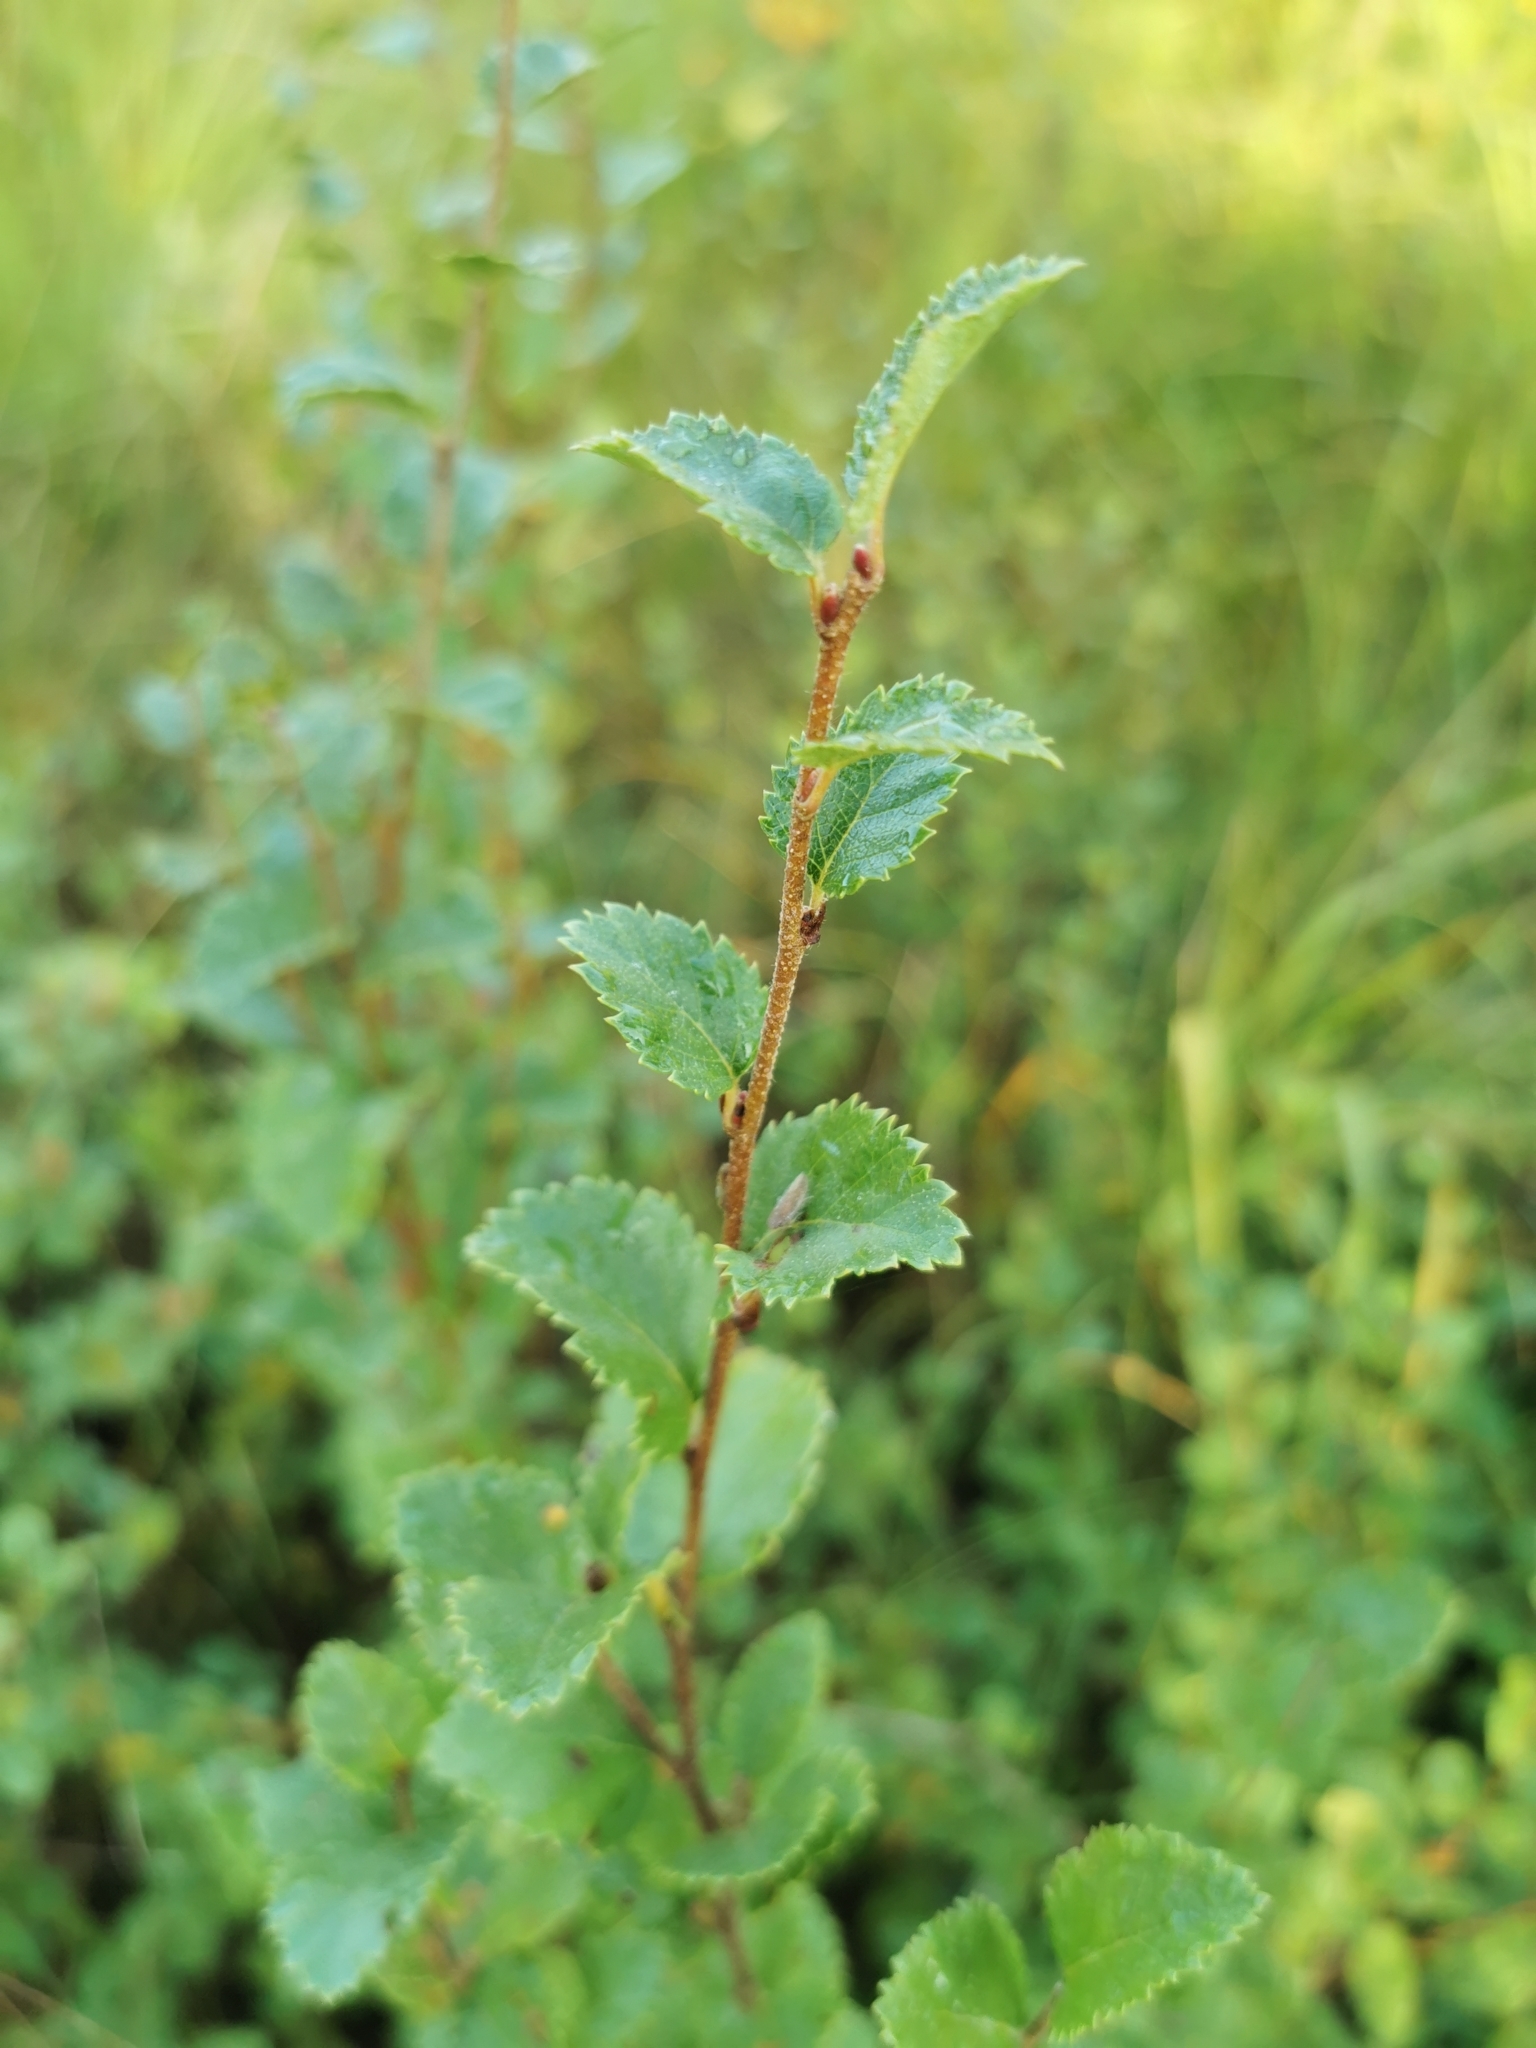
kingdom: Plantae
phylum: Tracheophyta
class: Magnoliopsida
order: Fagales
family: Betulaceae
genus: Betula
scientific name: Betula humilis
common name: Shrubby birch
